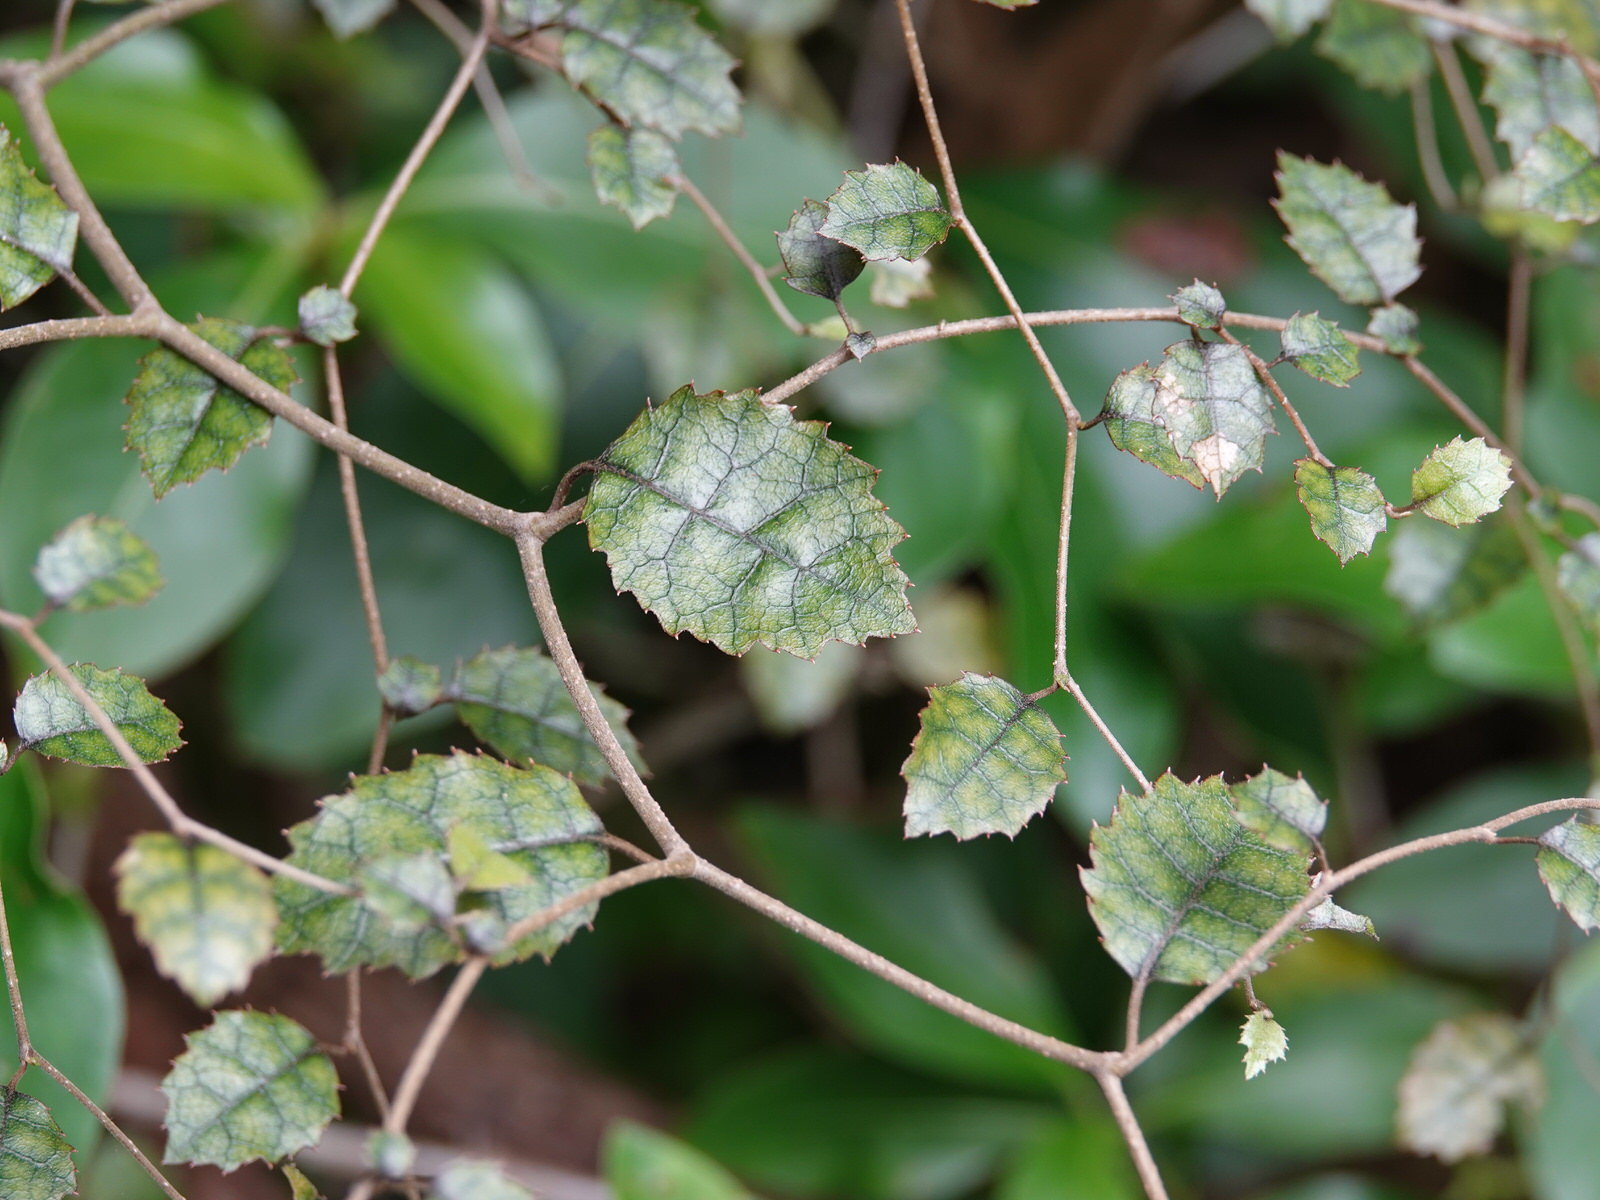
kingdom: Plantae
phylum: Tracheophyta
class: Magnoliopsida
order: Asterales
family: Rousseaceae
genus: Carpodetus
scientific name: Carpodetus serratus
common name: White mapau
